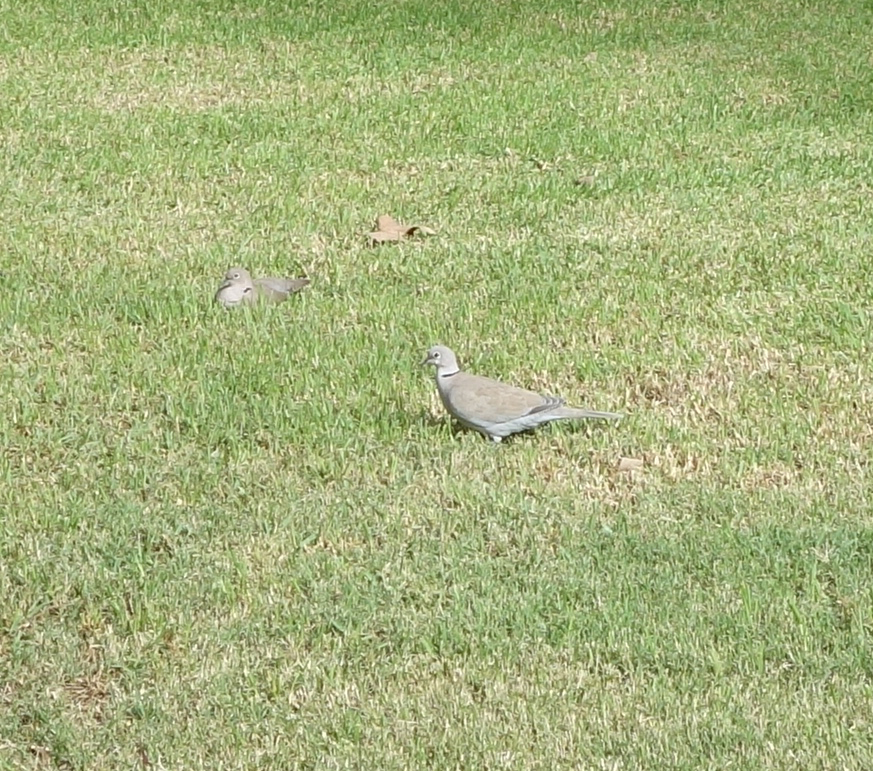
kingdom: Animalia
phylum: Chordata
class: Aves
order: Columbiformes
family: Columbidae
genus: Streptopelia
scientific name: Streptopelia decaocto
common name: Eurasian collared dove
